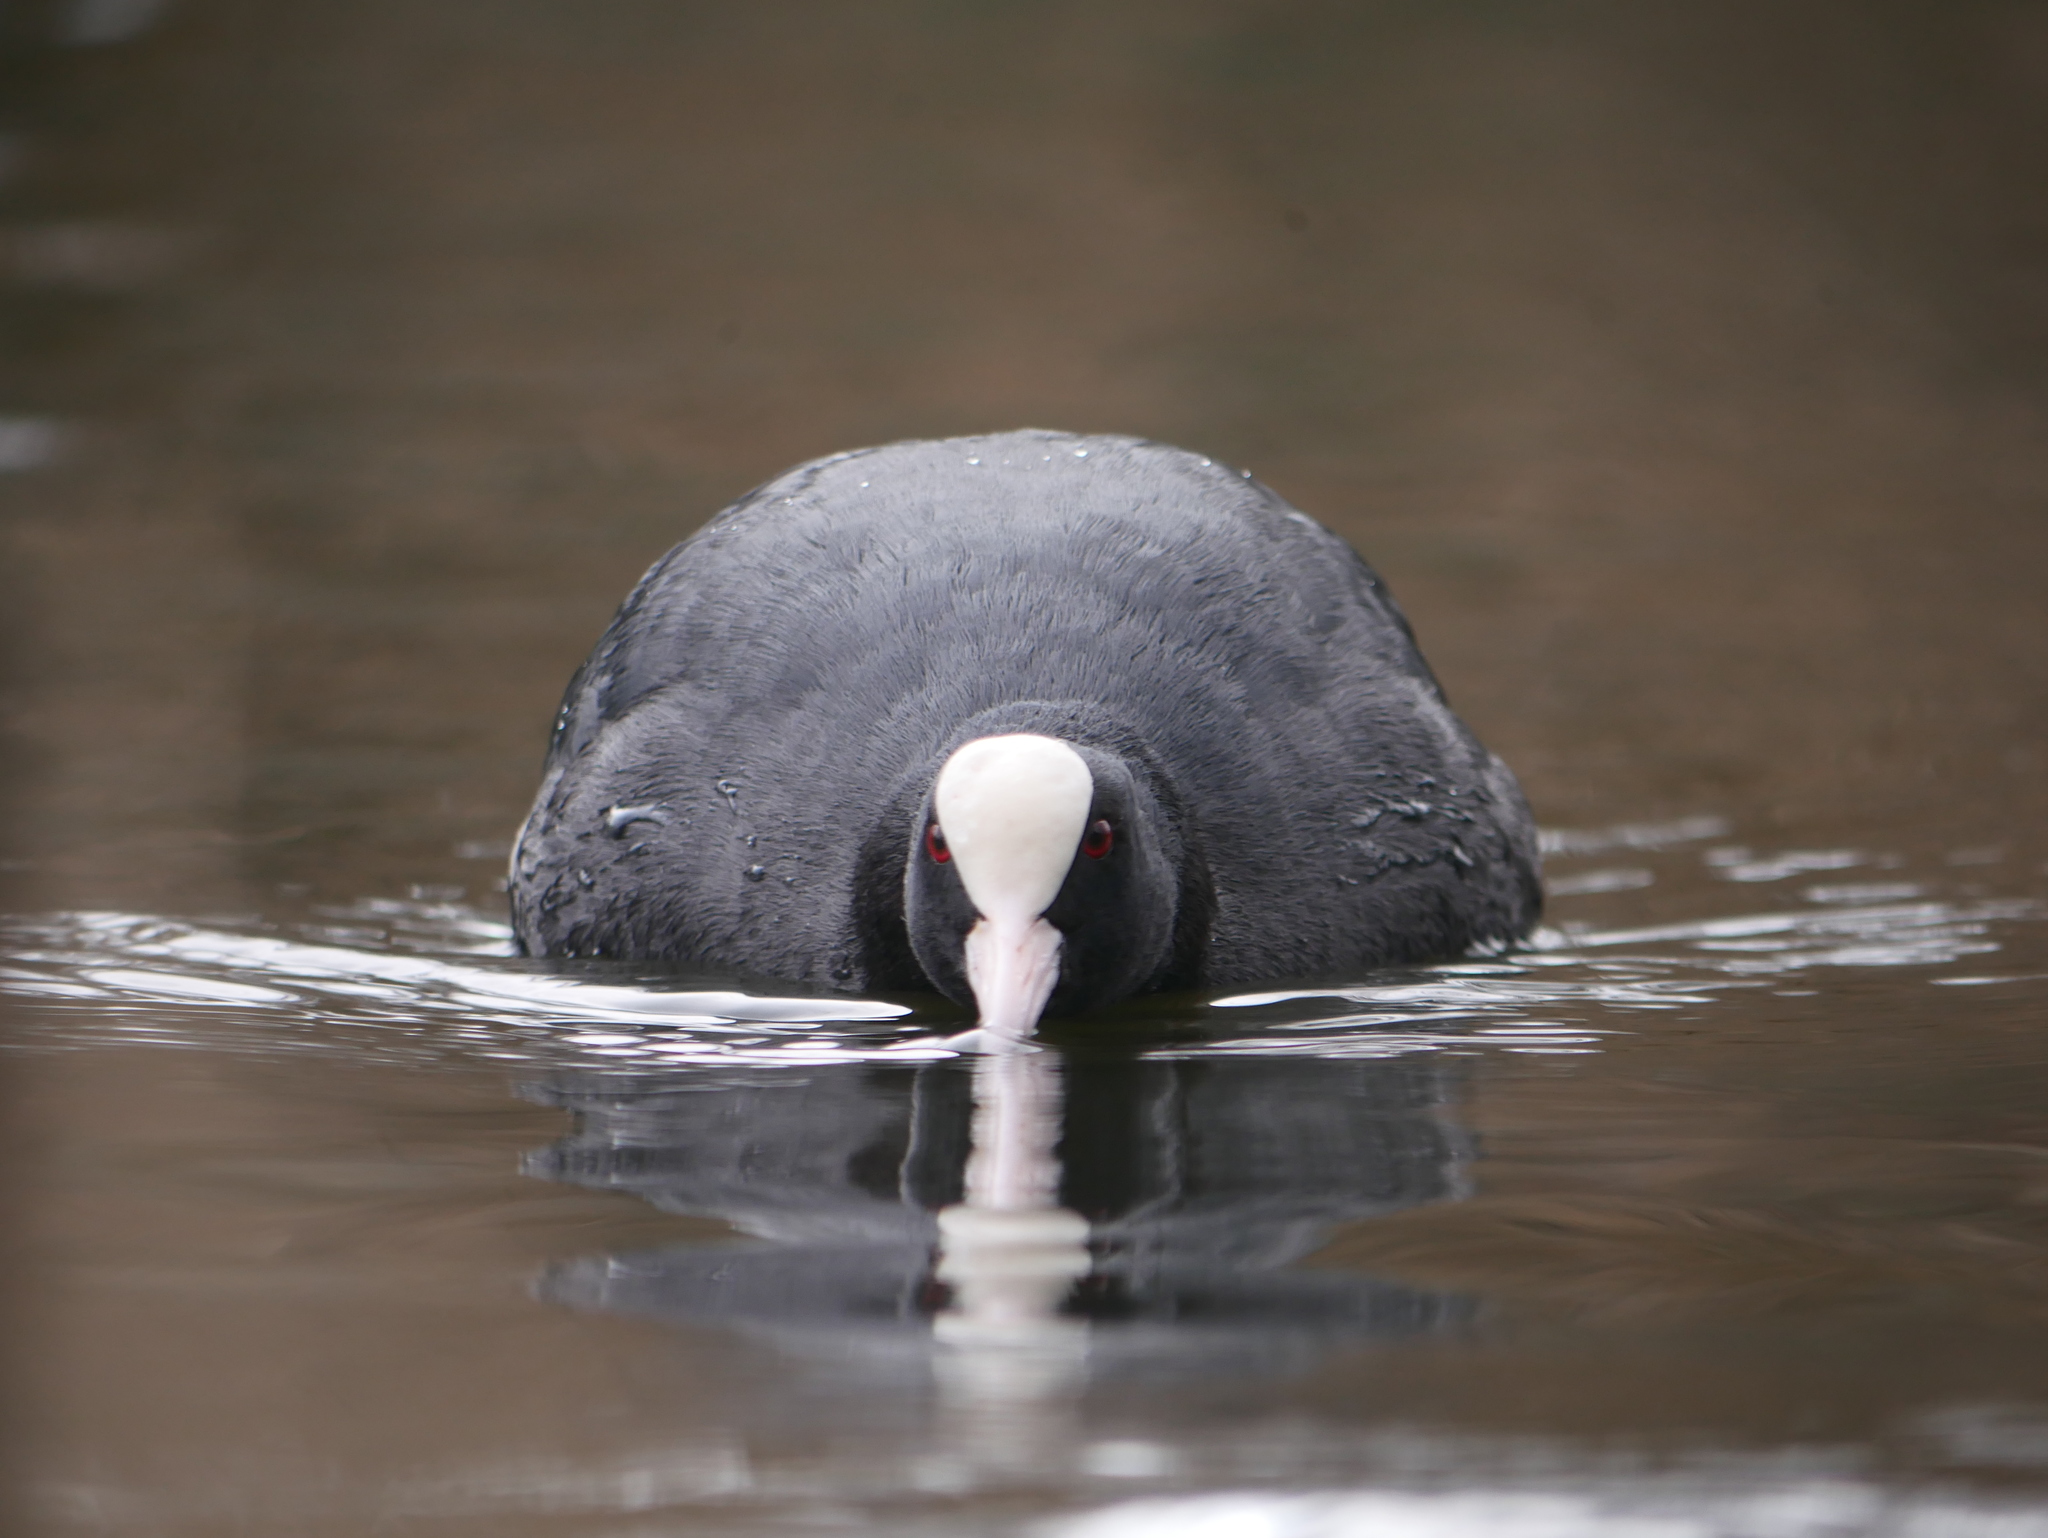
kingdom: Animalia
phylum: Chordata
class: Aves
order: Gruiformes
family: Rallidae
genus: Fulica
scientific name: Fulica atra
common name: Eurasian coot
